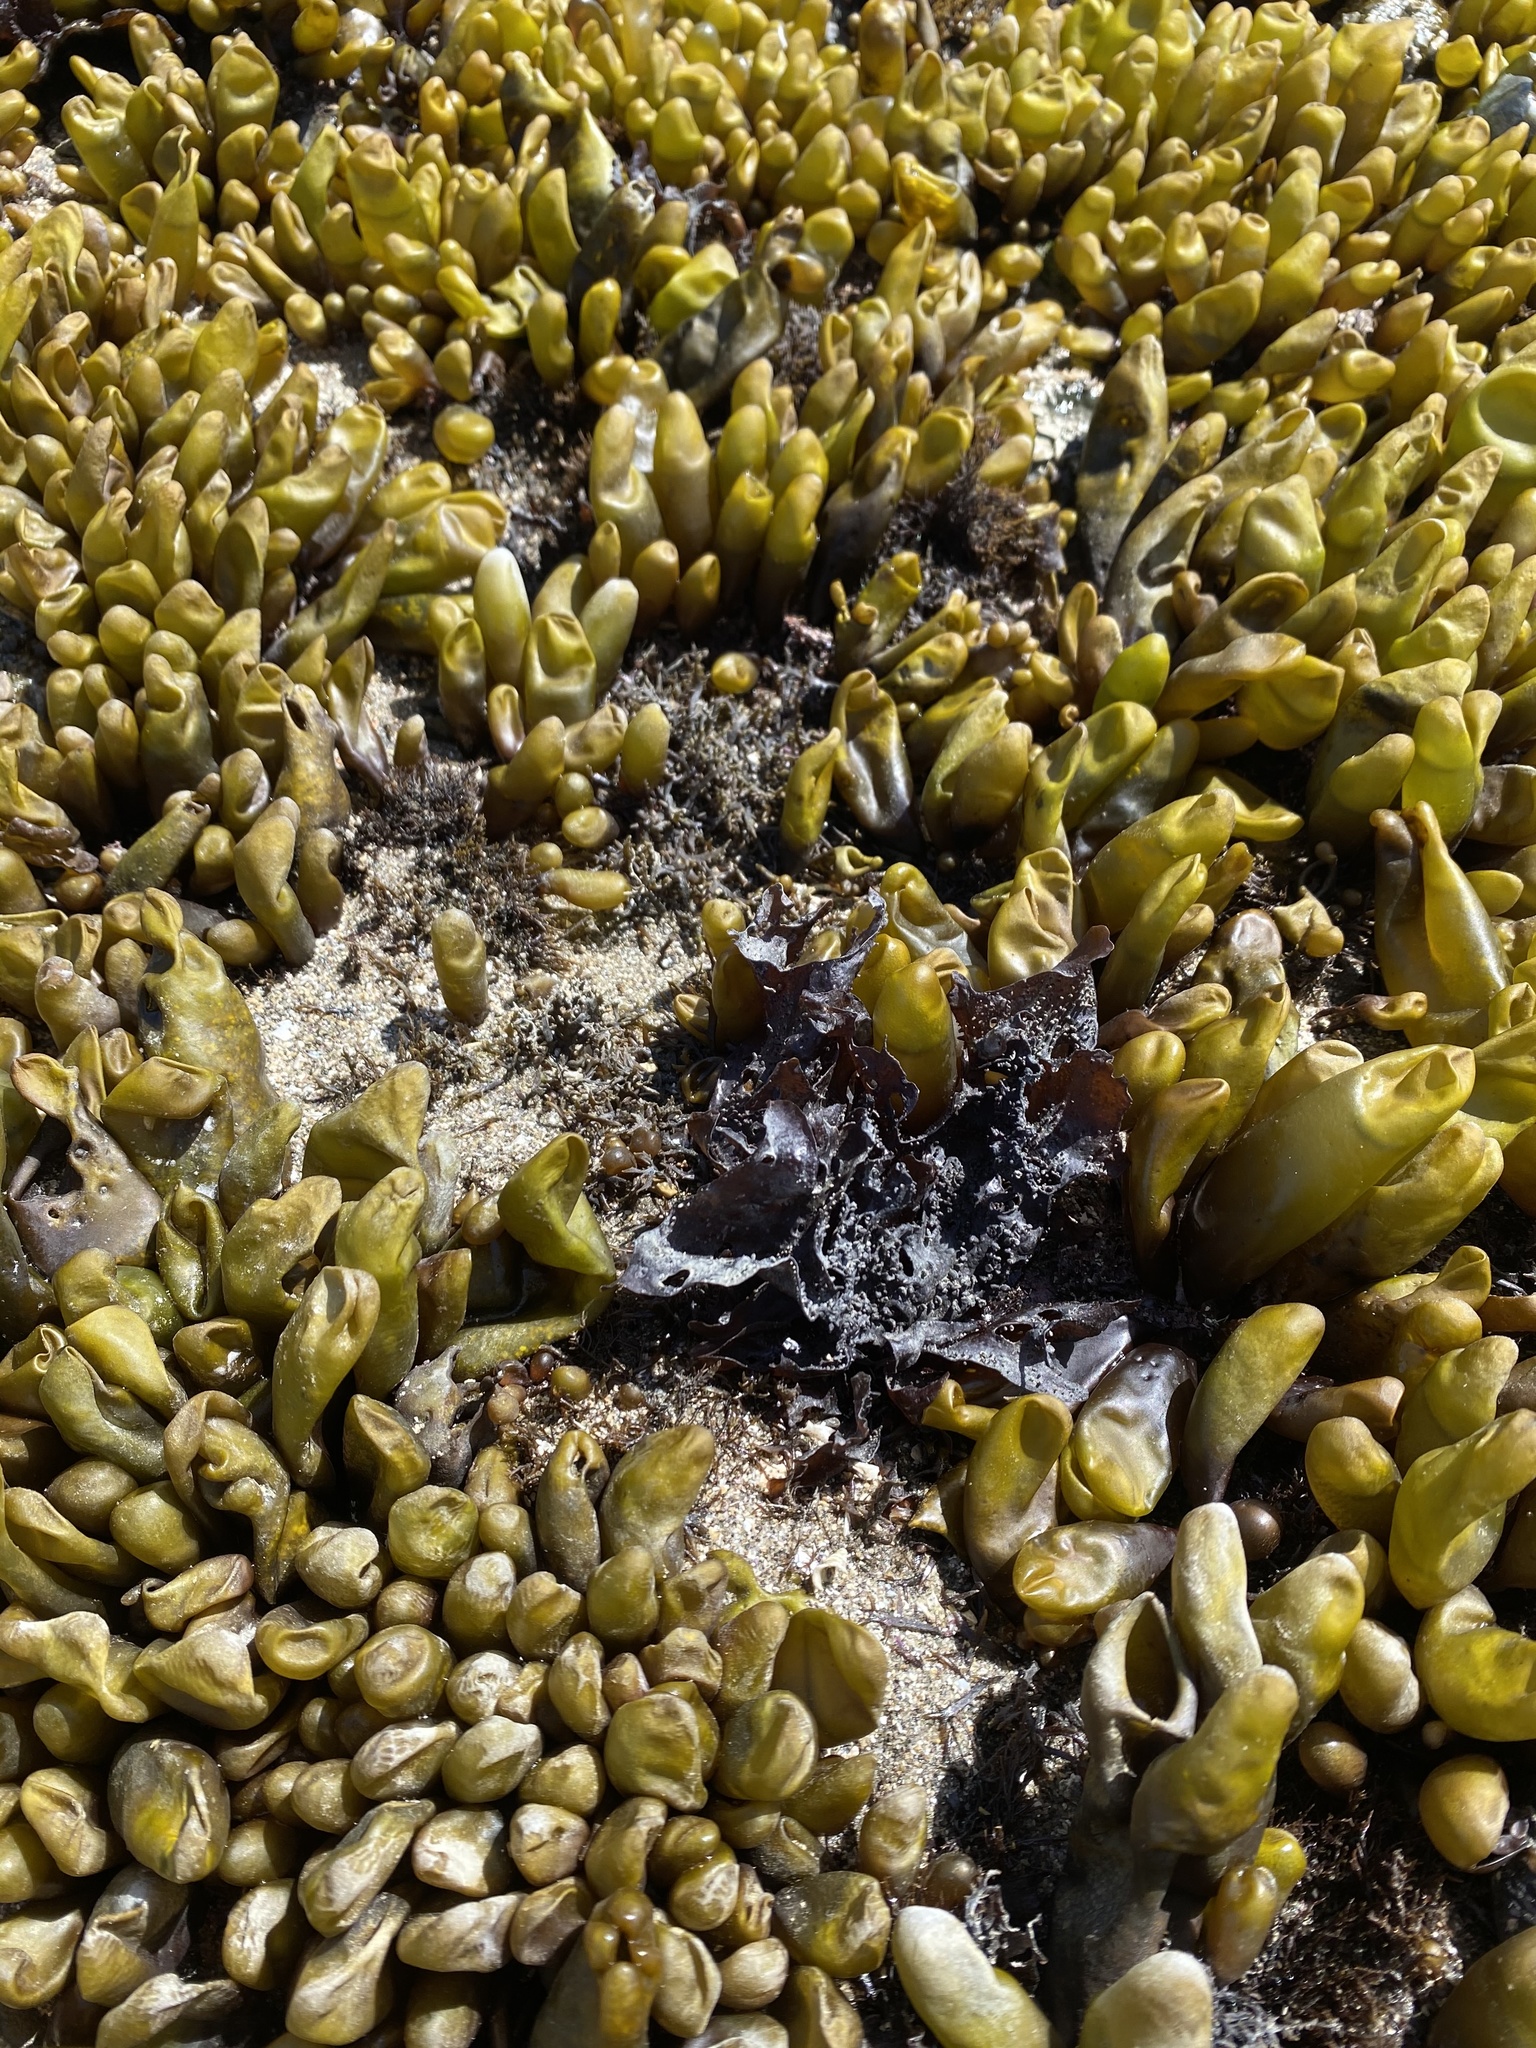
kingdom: Plantae
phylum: Rhodophyta
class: Florideophyceae
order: Palmariales
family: Palmariaceae
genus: Halosaccion
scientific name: Halosaccion glandiforme
